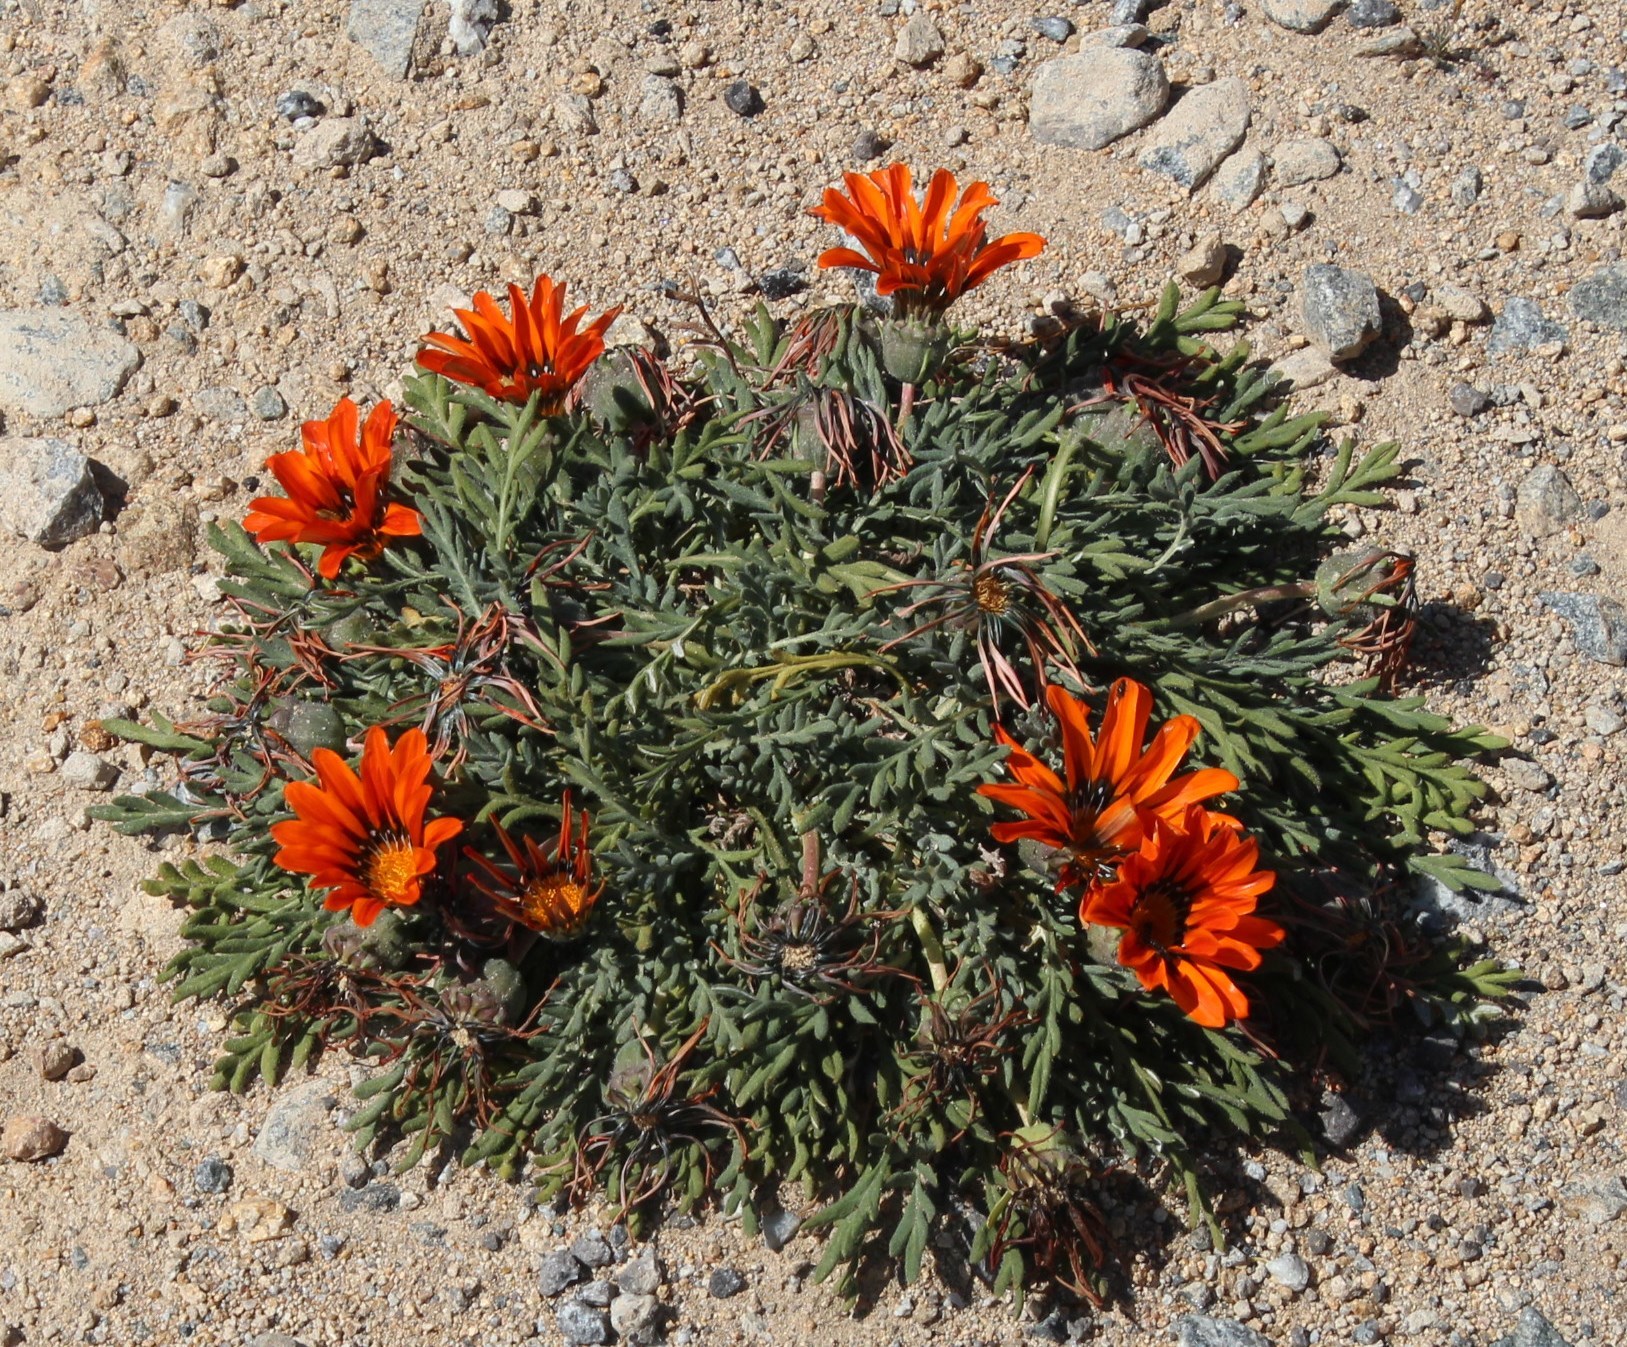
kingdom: Plantae
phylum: Tracheophyta
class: Magnoliopsida
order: Asterales
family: Asteraceae
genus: Gazania
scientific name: Gazania leiopoda
